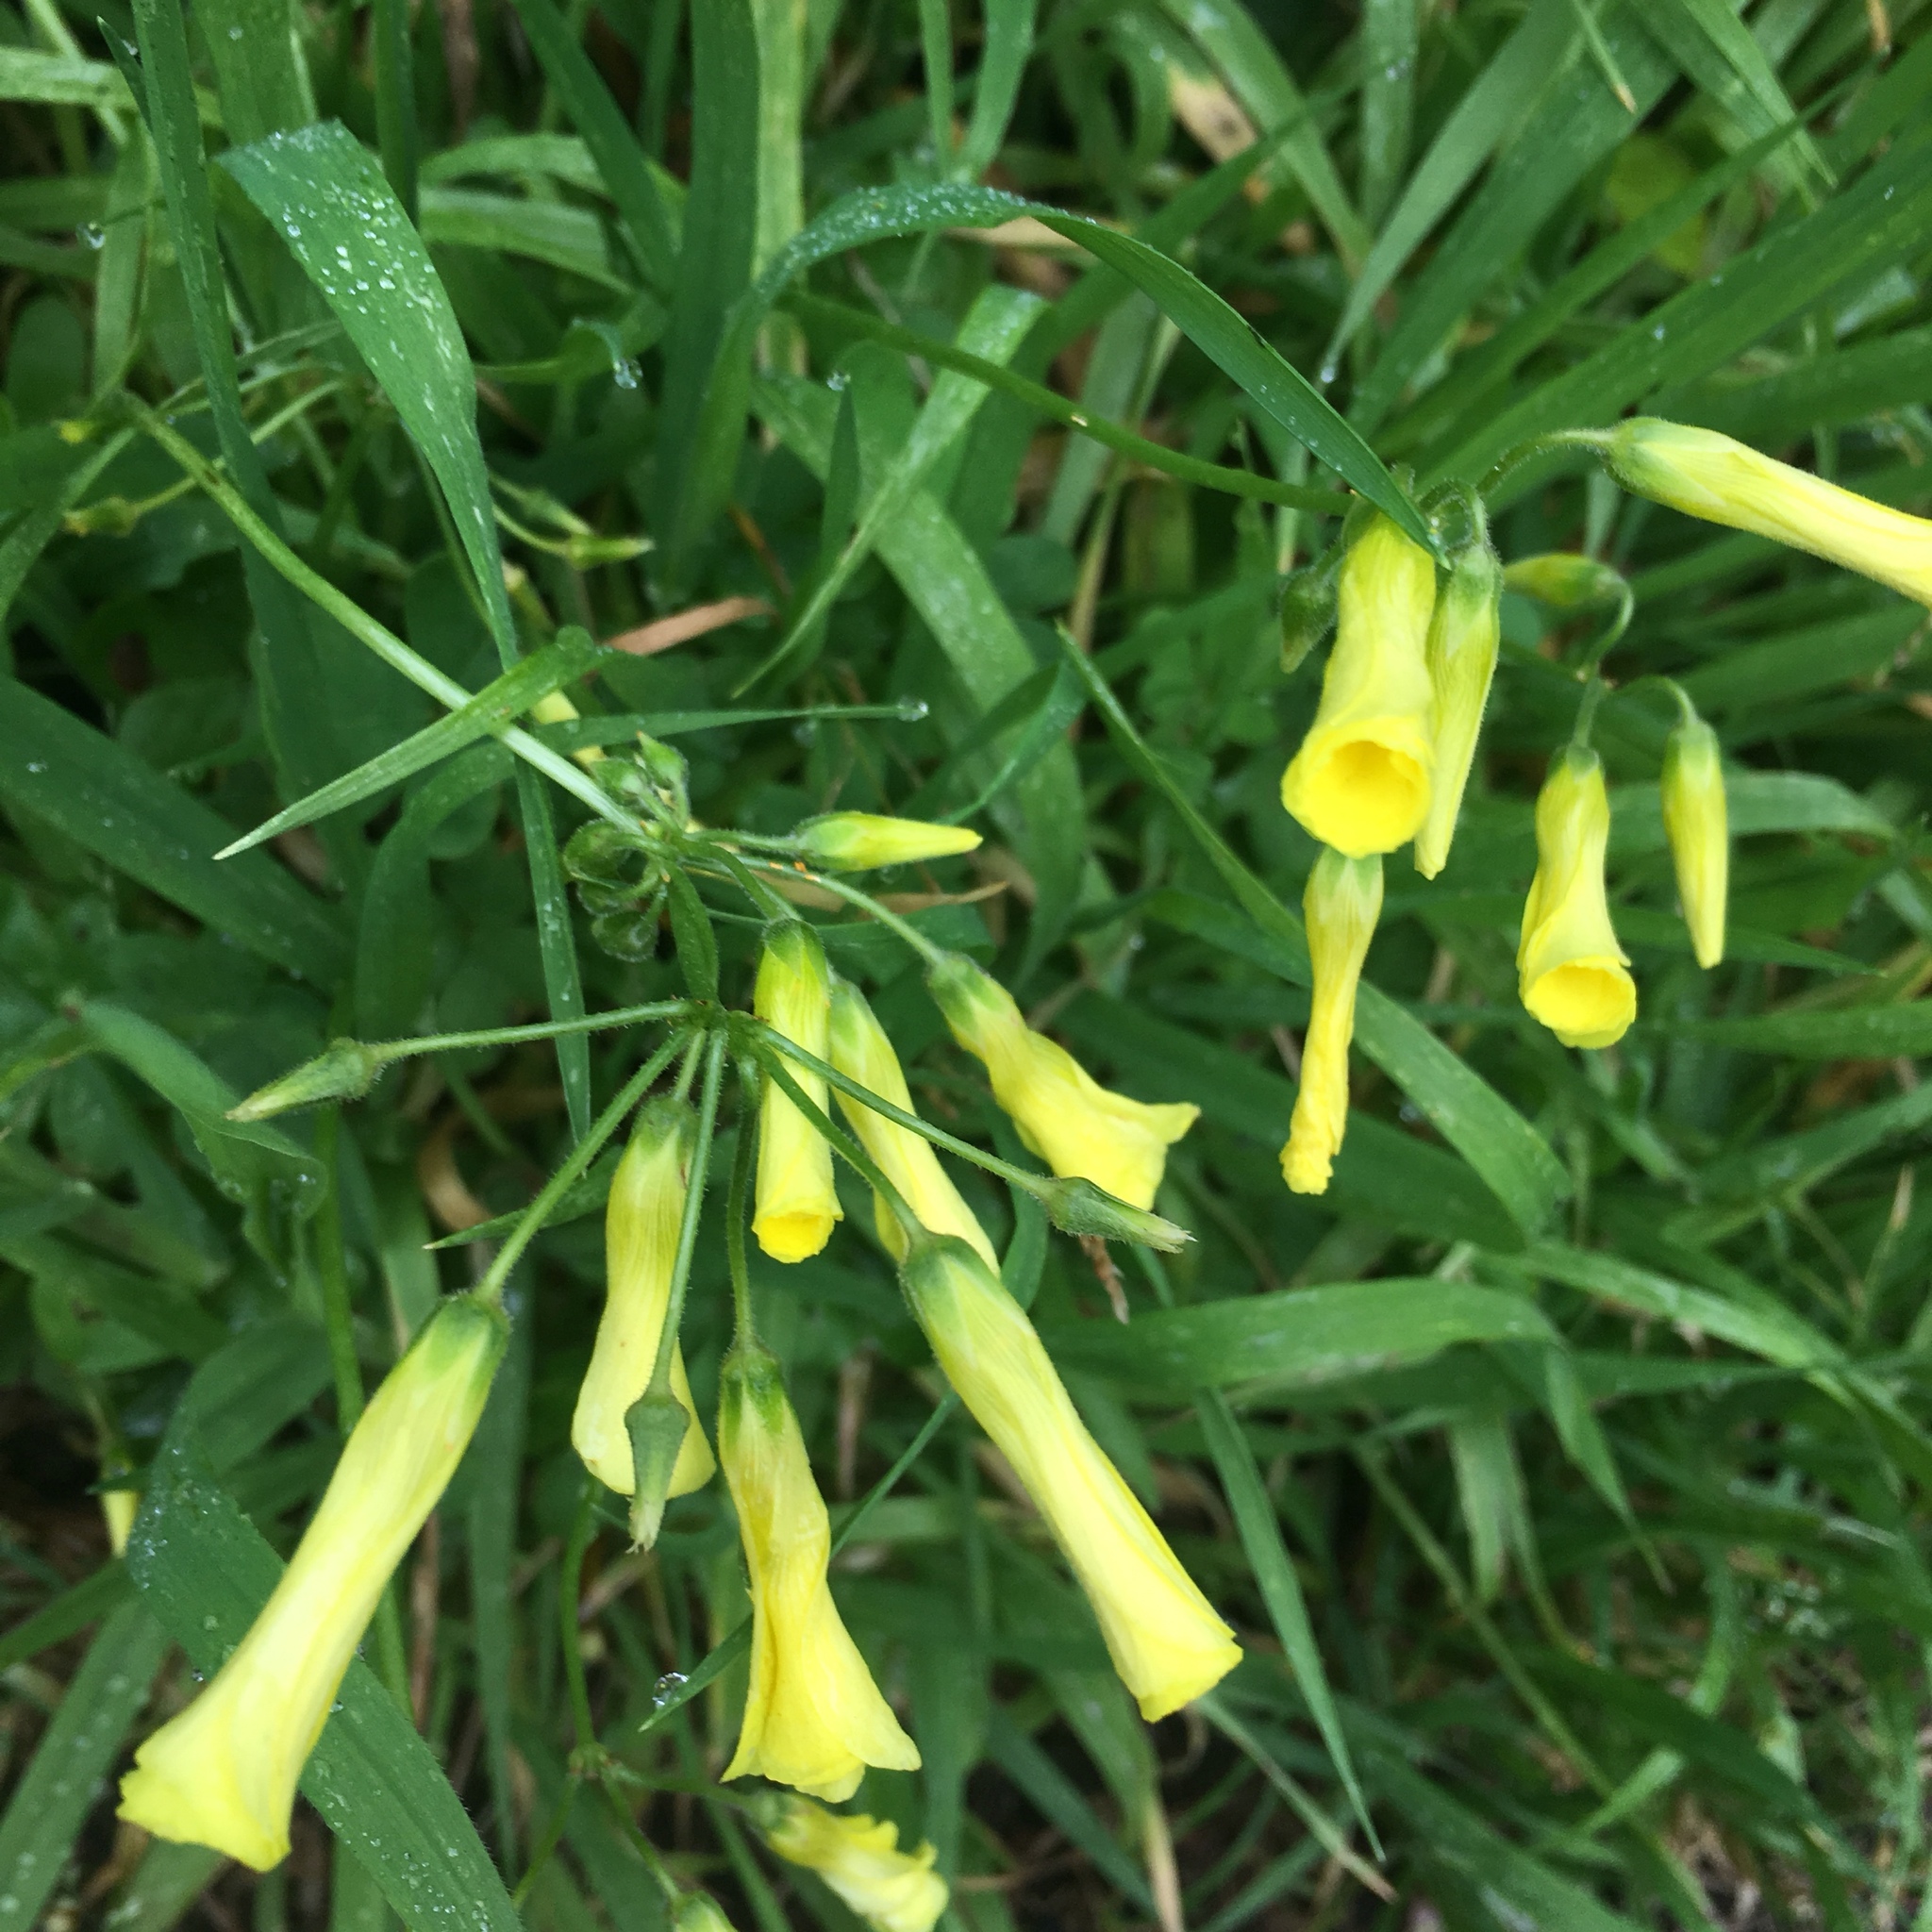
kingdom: Plantae
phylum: Tracheophyta
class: Magnoliopsida
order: Oxalidales
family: Oxalidaceae
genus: Oxalis
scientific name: Oxalis pes-caprae
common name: Bermuda-buttercup
